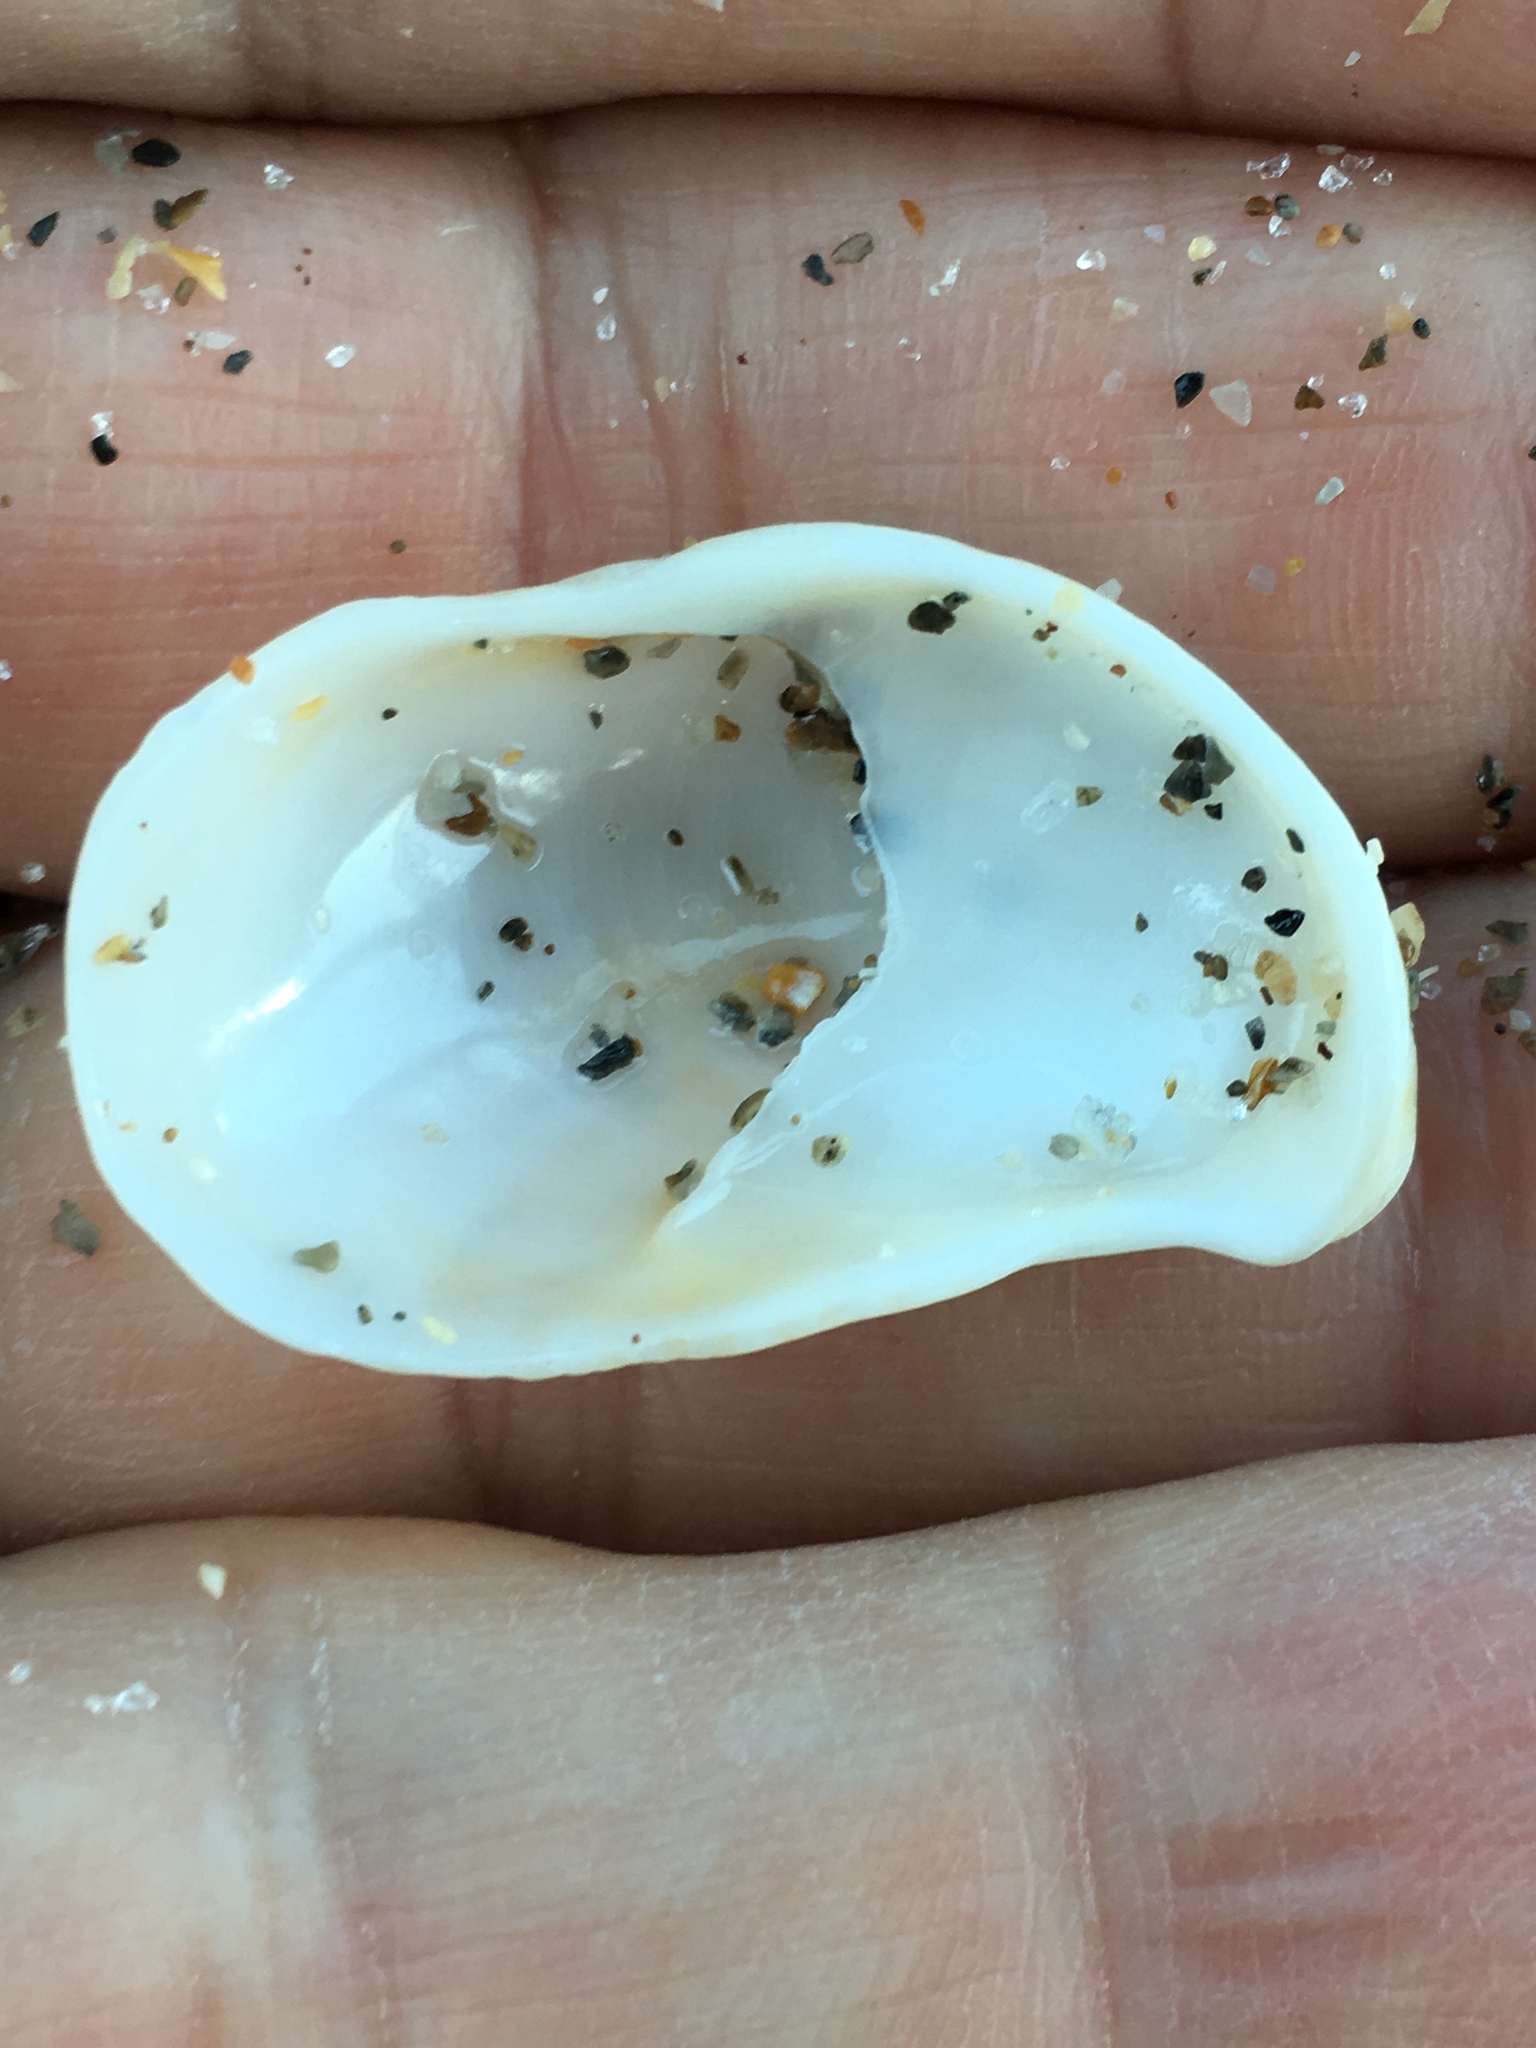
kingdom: Animalia
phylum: Mollusca
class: Gastropoda
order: Littorinimorpha
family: Calyptraeidae
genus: Crepidula
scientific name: Crepidula fornicata
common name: Slipper limpet
